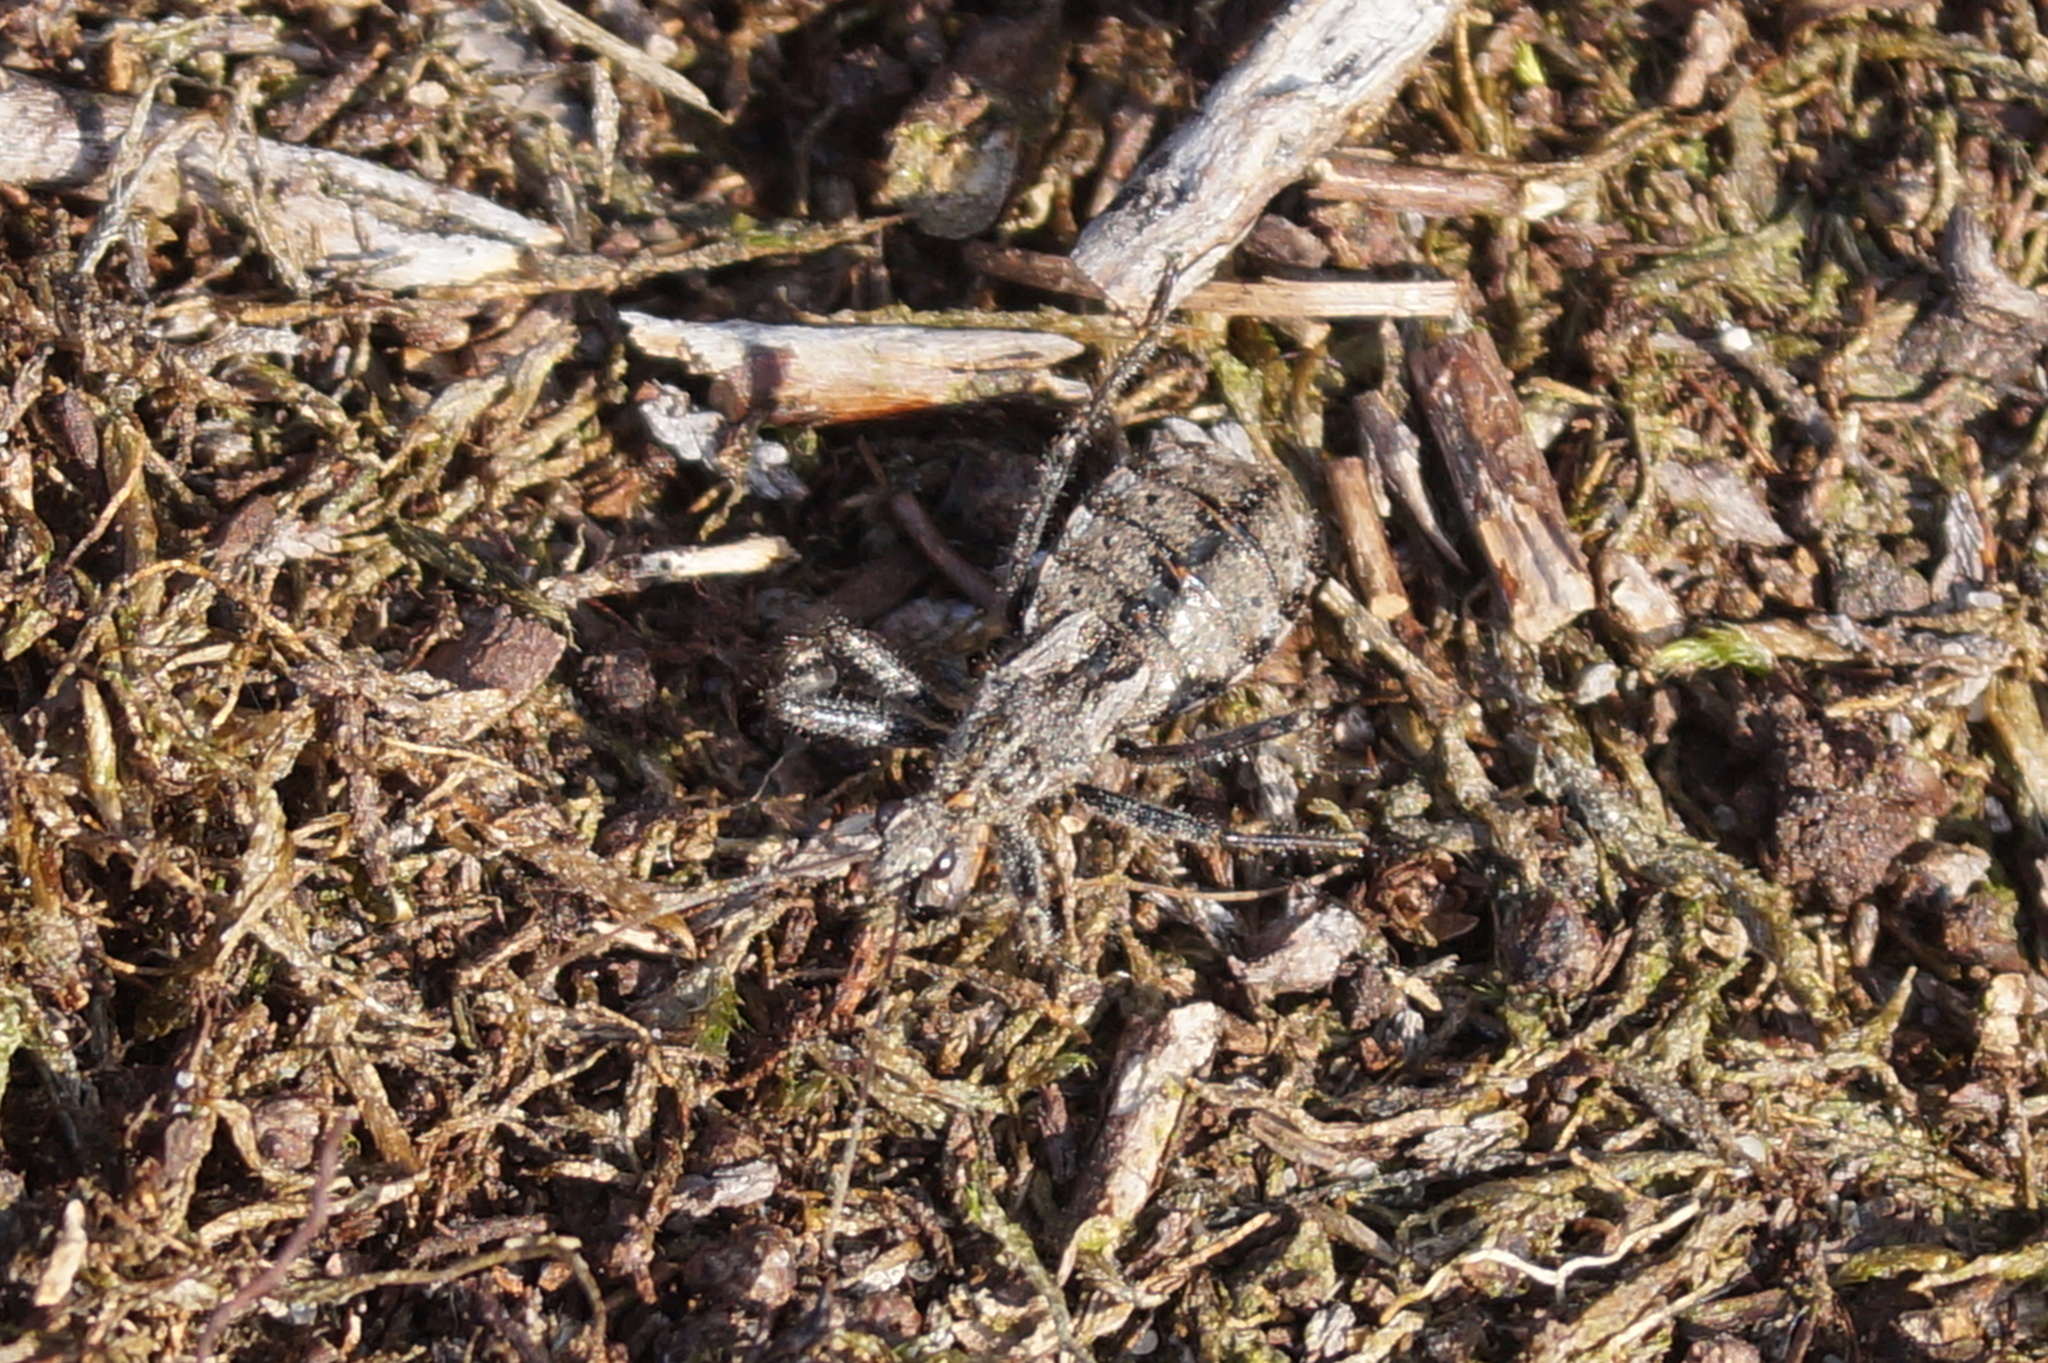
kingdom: Animalia
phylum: Arthropoda
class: Insecta
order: Hemiptera
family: Reduviidae
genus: Coranus
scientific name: Coranus woodroffei
